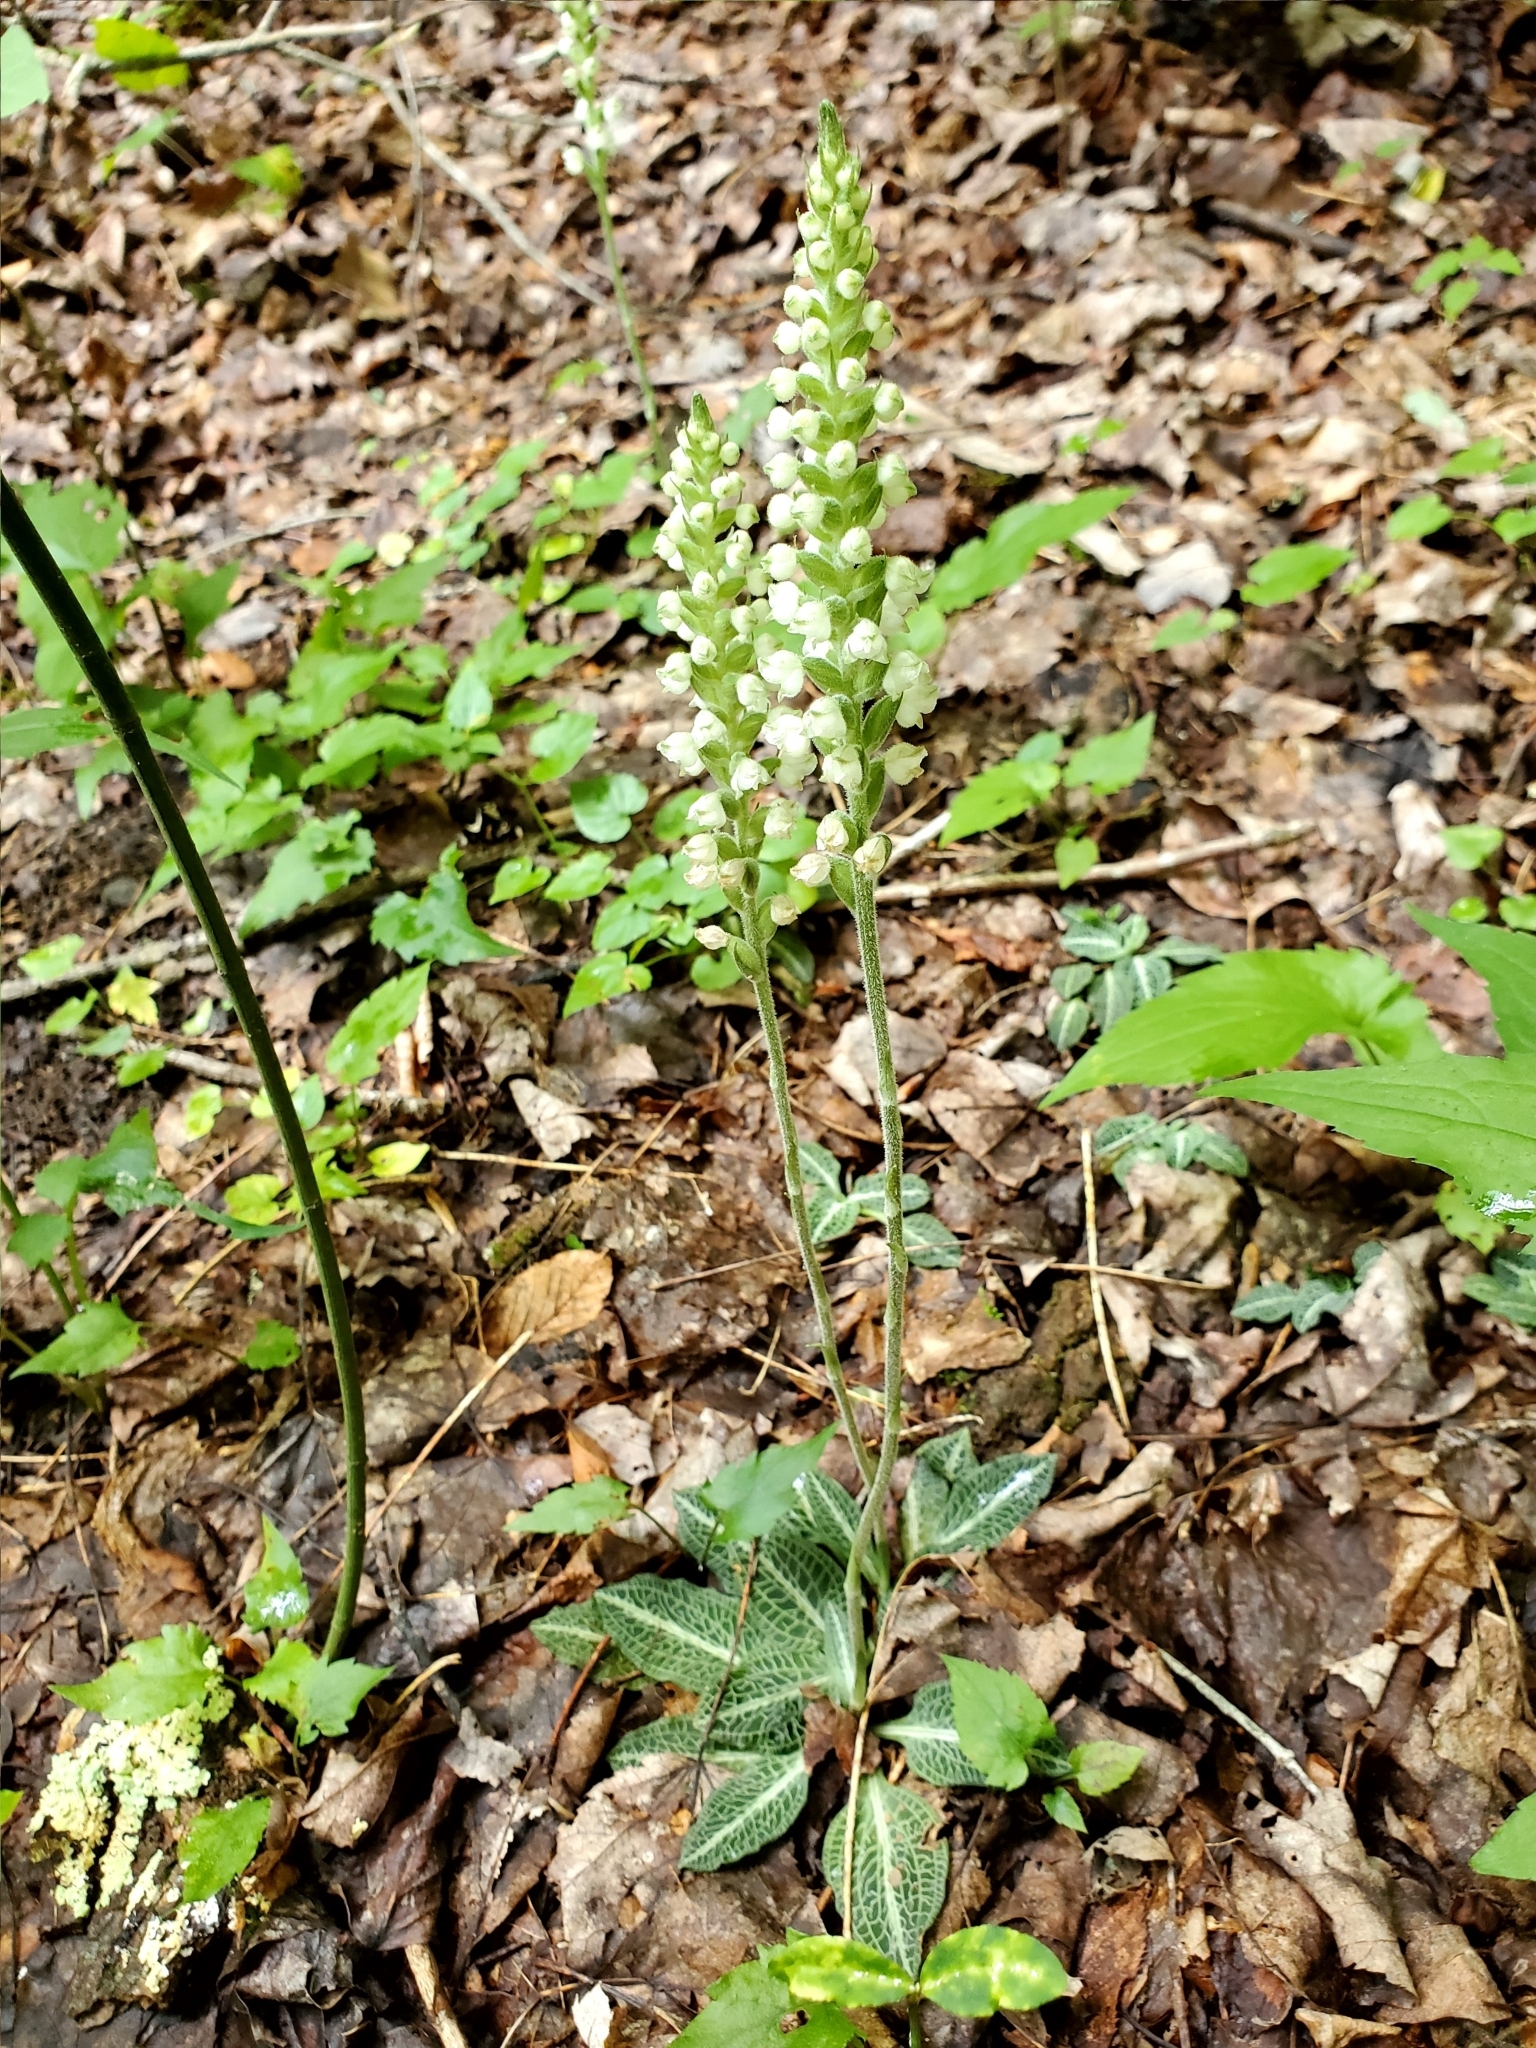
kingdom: Plantae
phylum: Tracheophyta
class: Liliopsida
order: Asparagales
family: Orchidaceae
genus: Goodyera
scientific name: Goodyera pubescens
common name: Downy rattlesnake-plantain
